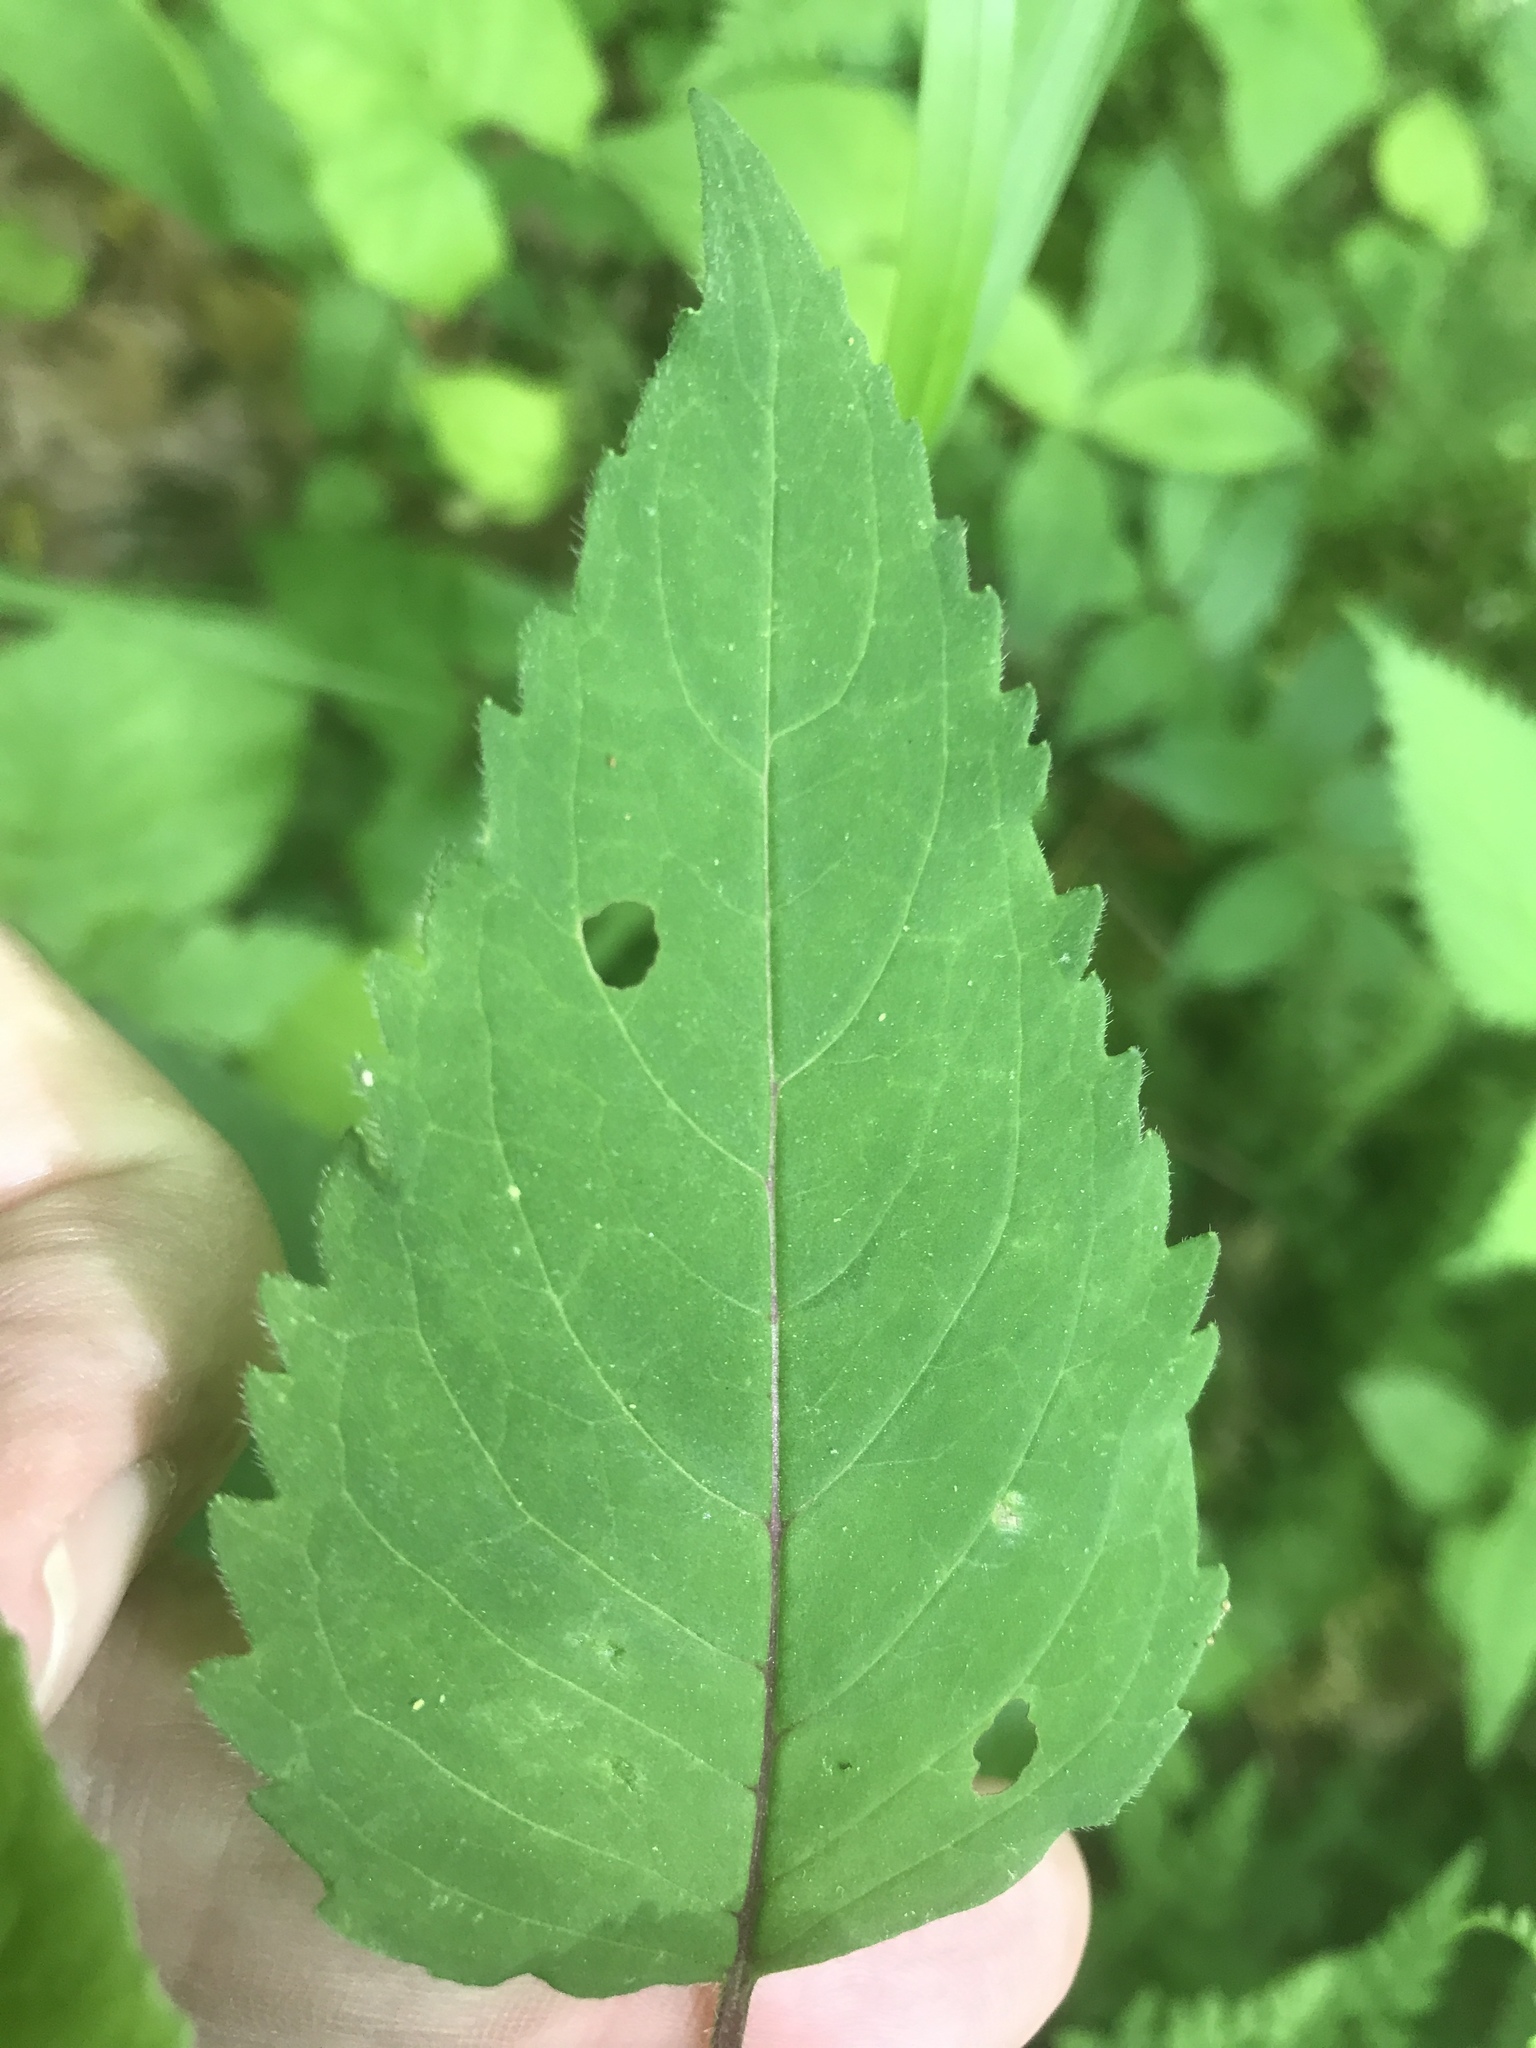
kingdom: Plantae
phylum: Tracheophyta
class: Magnoliopsida
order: Lamiales
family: Lamiaceae
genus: Monarda
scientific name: Monarda fistulosa
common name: Purple beebalm
